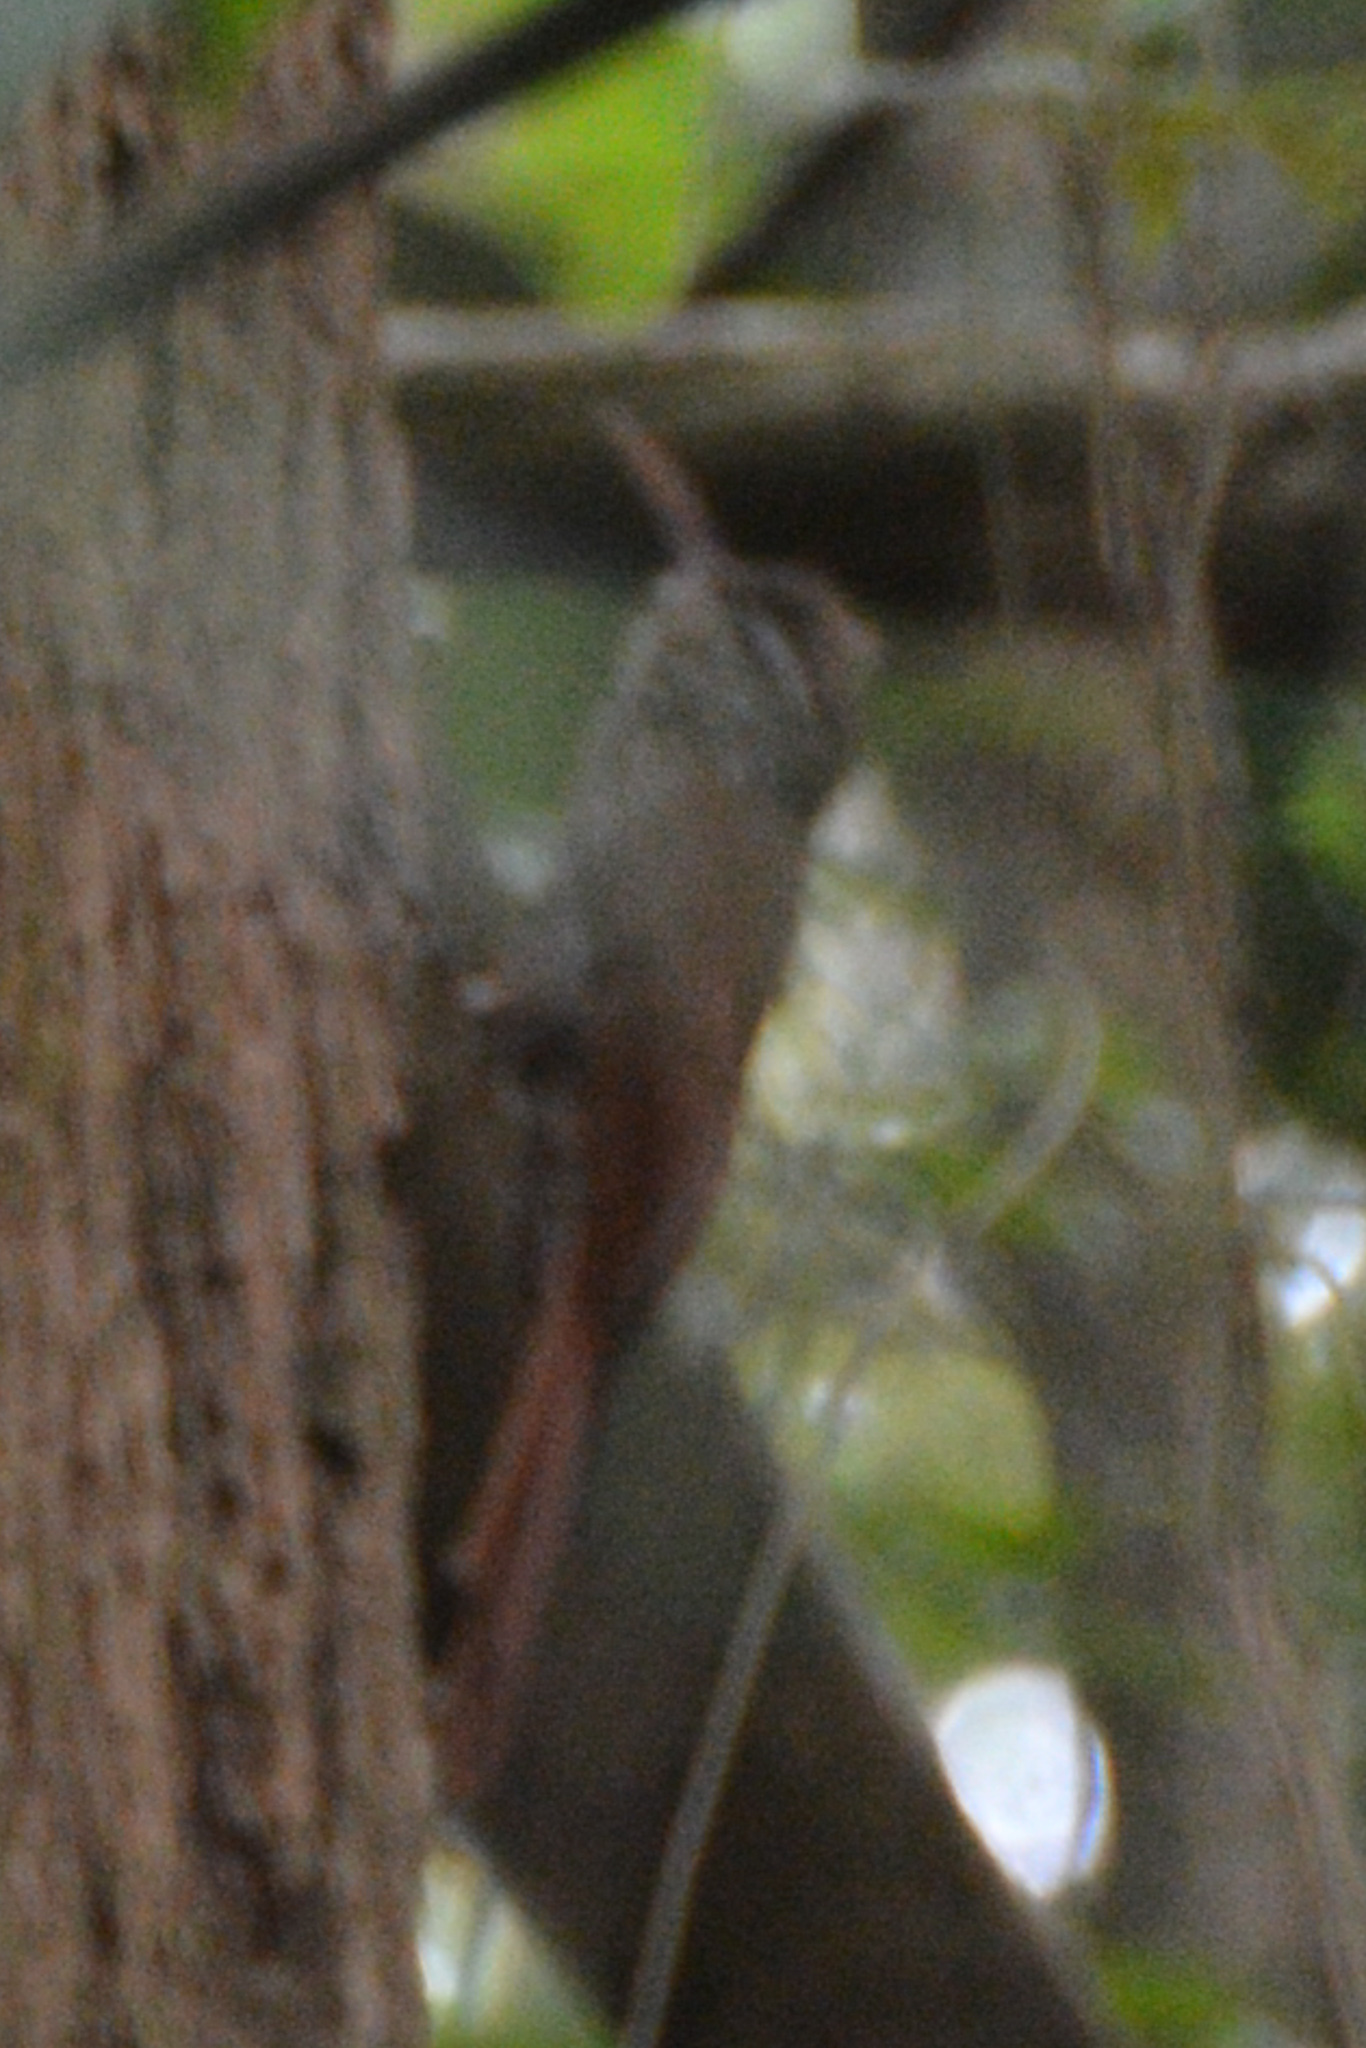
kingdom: Animalia
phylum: Chordata
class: Aves
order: Passeriformes
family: Furnariidae
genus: Lepidocolaptes
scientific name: Lepidocolaptes souleyetii
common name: Streak-headed woodcreeper
